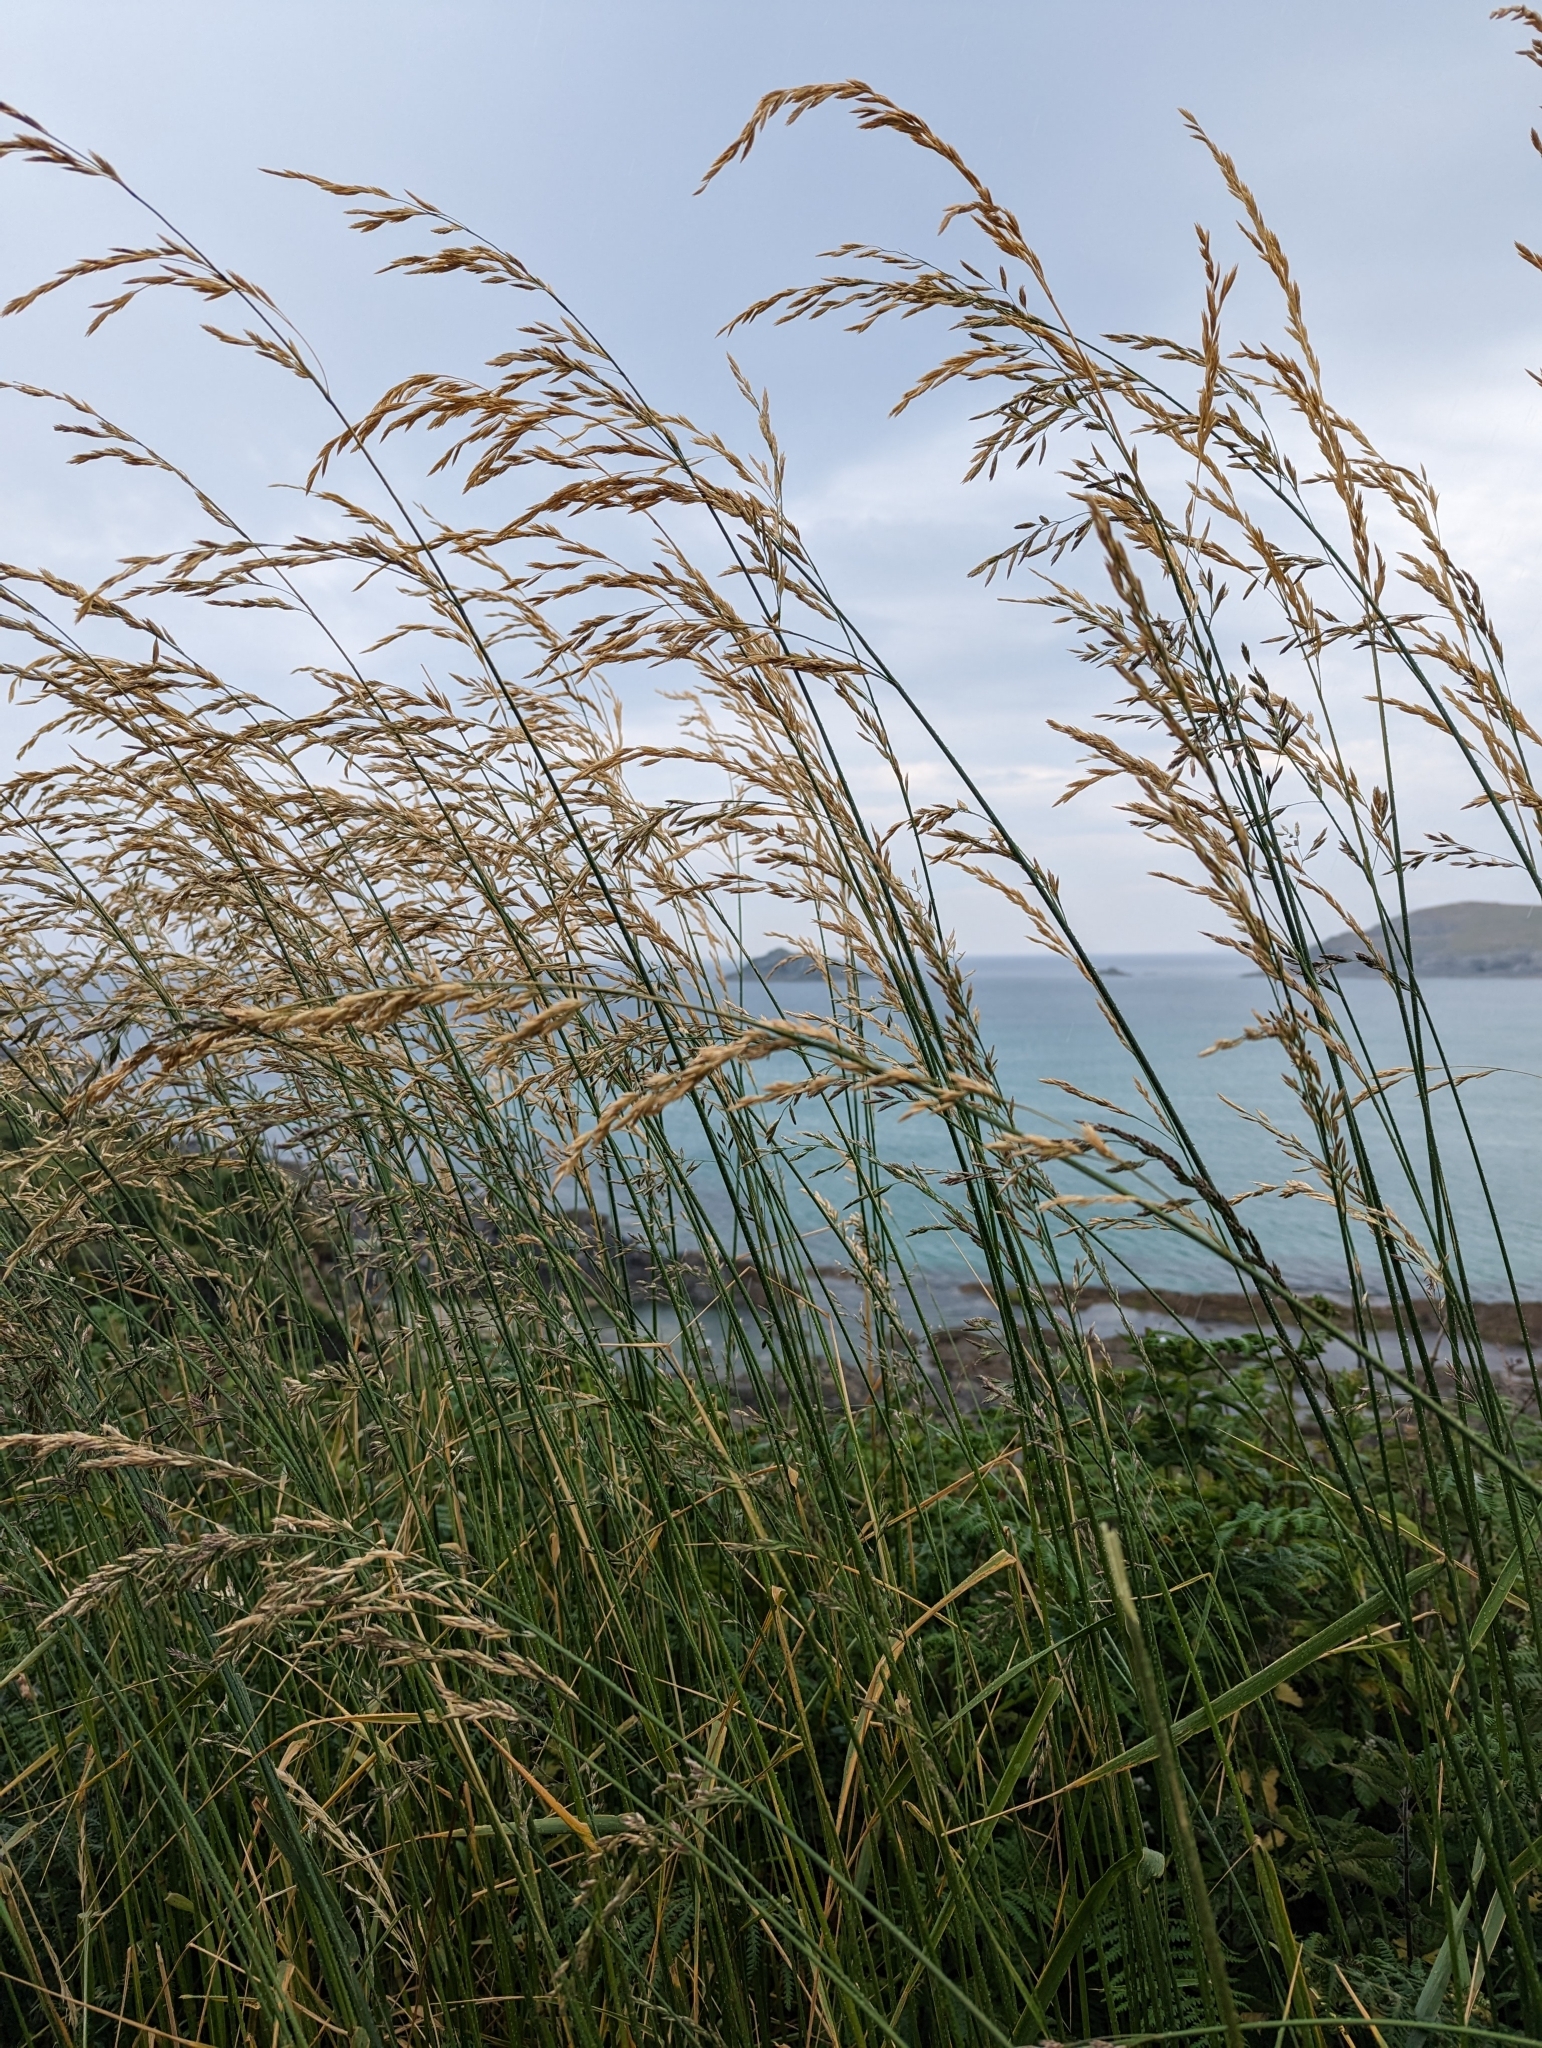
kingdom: Plantae
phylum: Tracheophyta
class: Liliopsida
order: Poales
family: Poaceae
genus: Lolium
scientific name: Lolium arundinaceum
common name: Reed fescue
